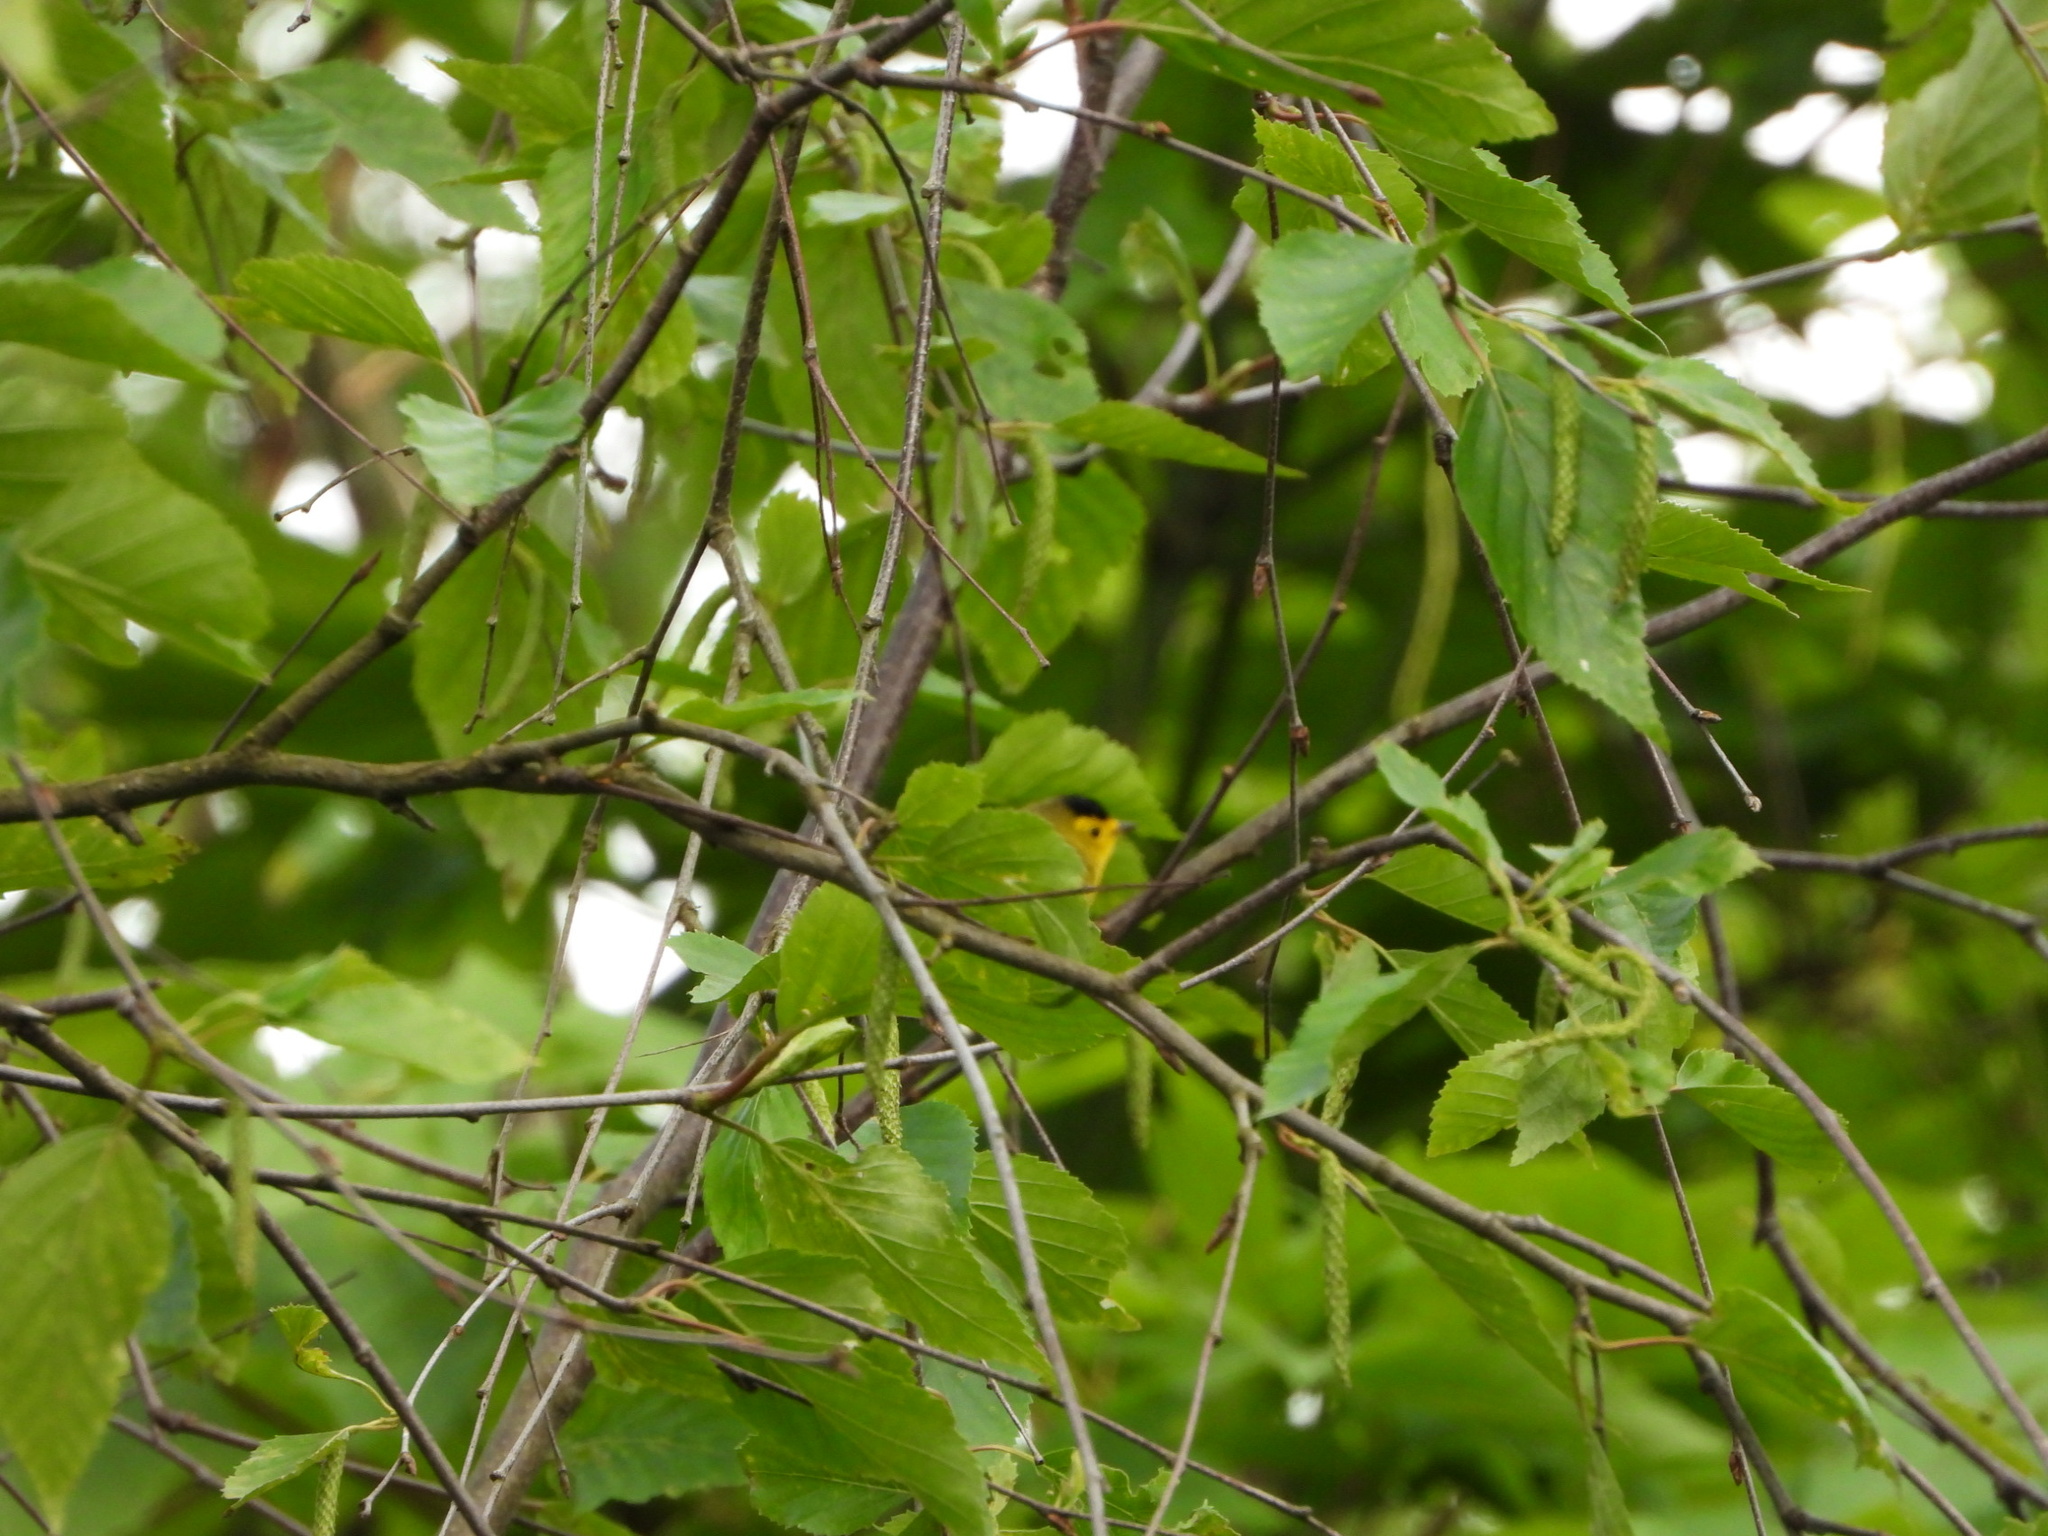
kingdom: Animalia
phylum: Chordata
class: Aves
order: Passeriformes
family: Parulidae
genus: Cardellina
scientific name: Cardellina pusilla
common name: Wilson's warbler
